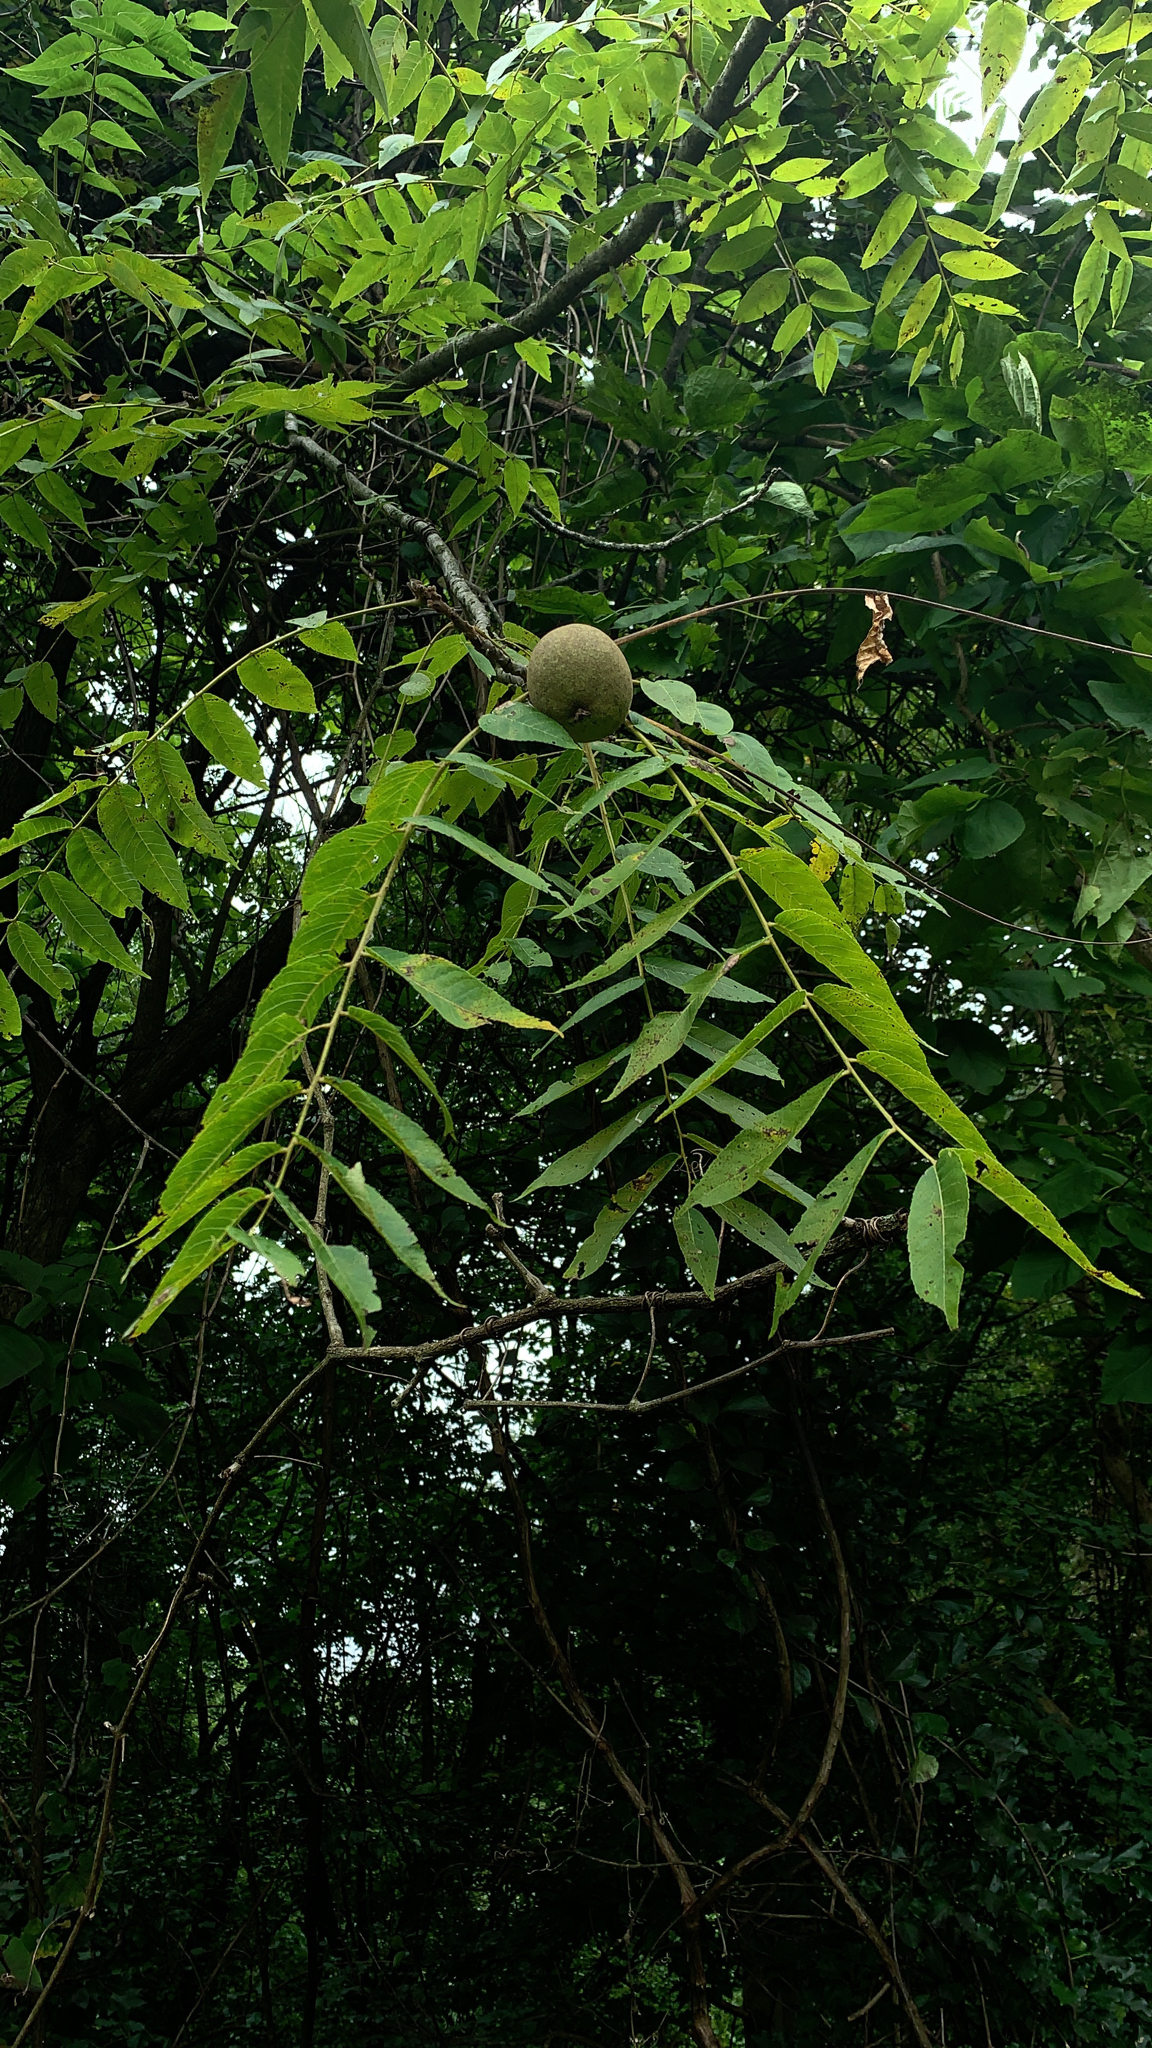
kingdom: Plantae
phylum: Tracheophyta
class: Magnoliopsida
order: Fagales
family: Juglandaceae
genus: Juglans
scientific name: Juglans nigra
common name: Black walnut
